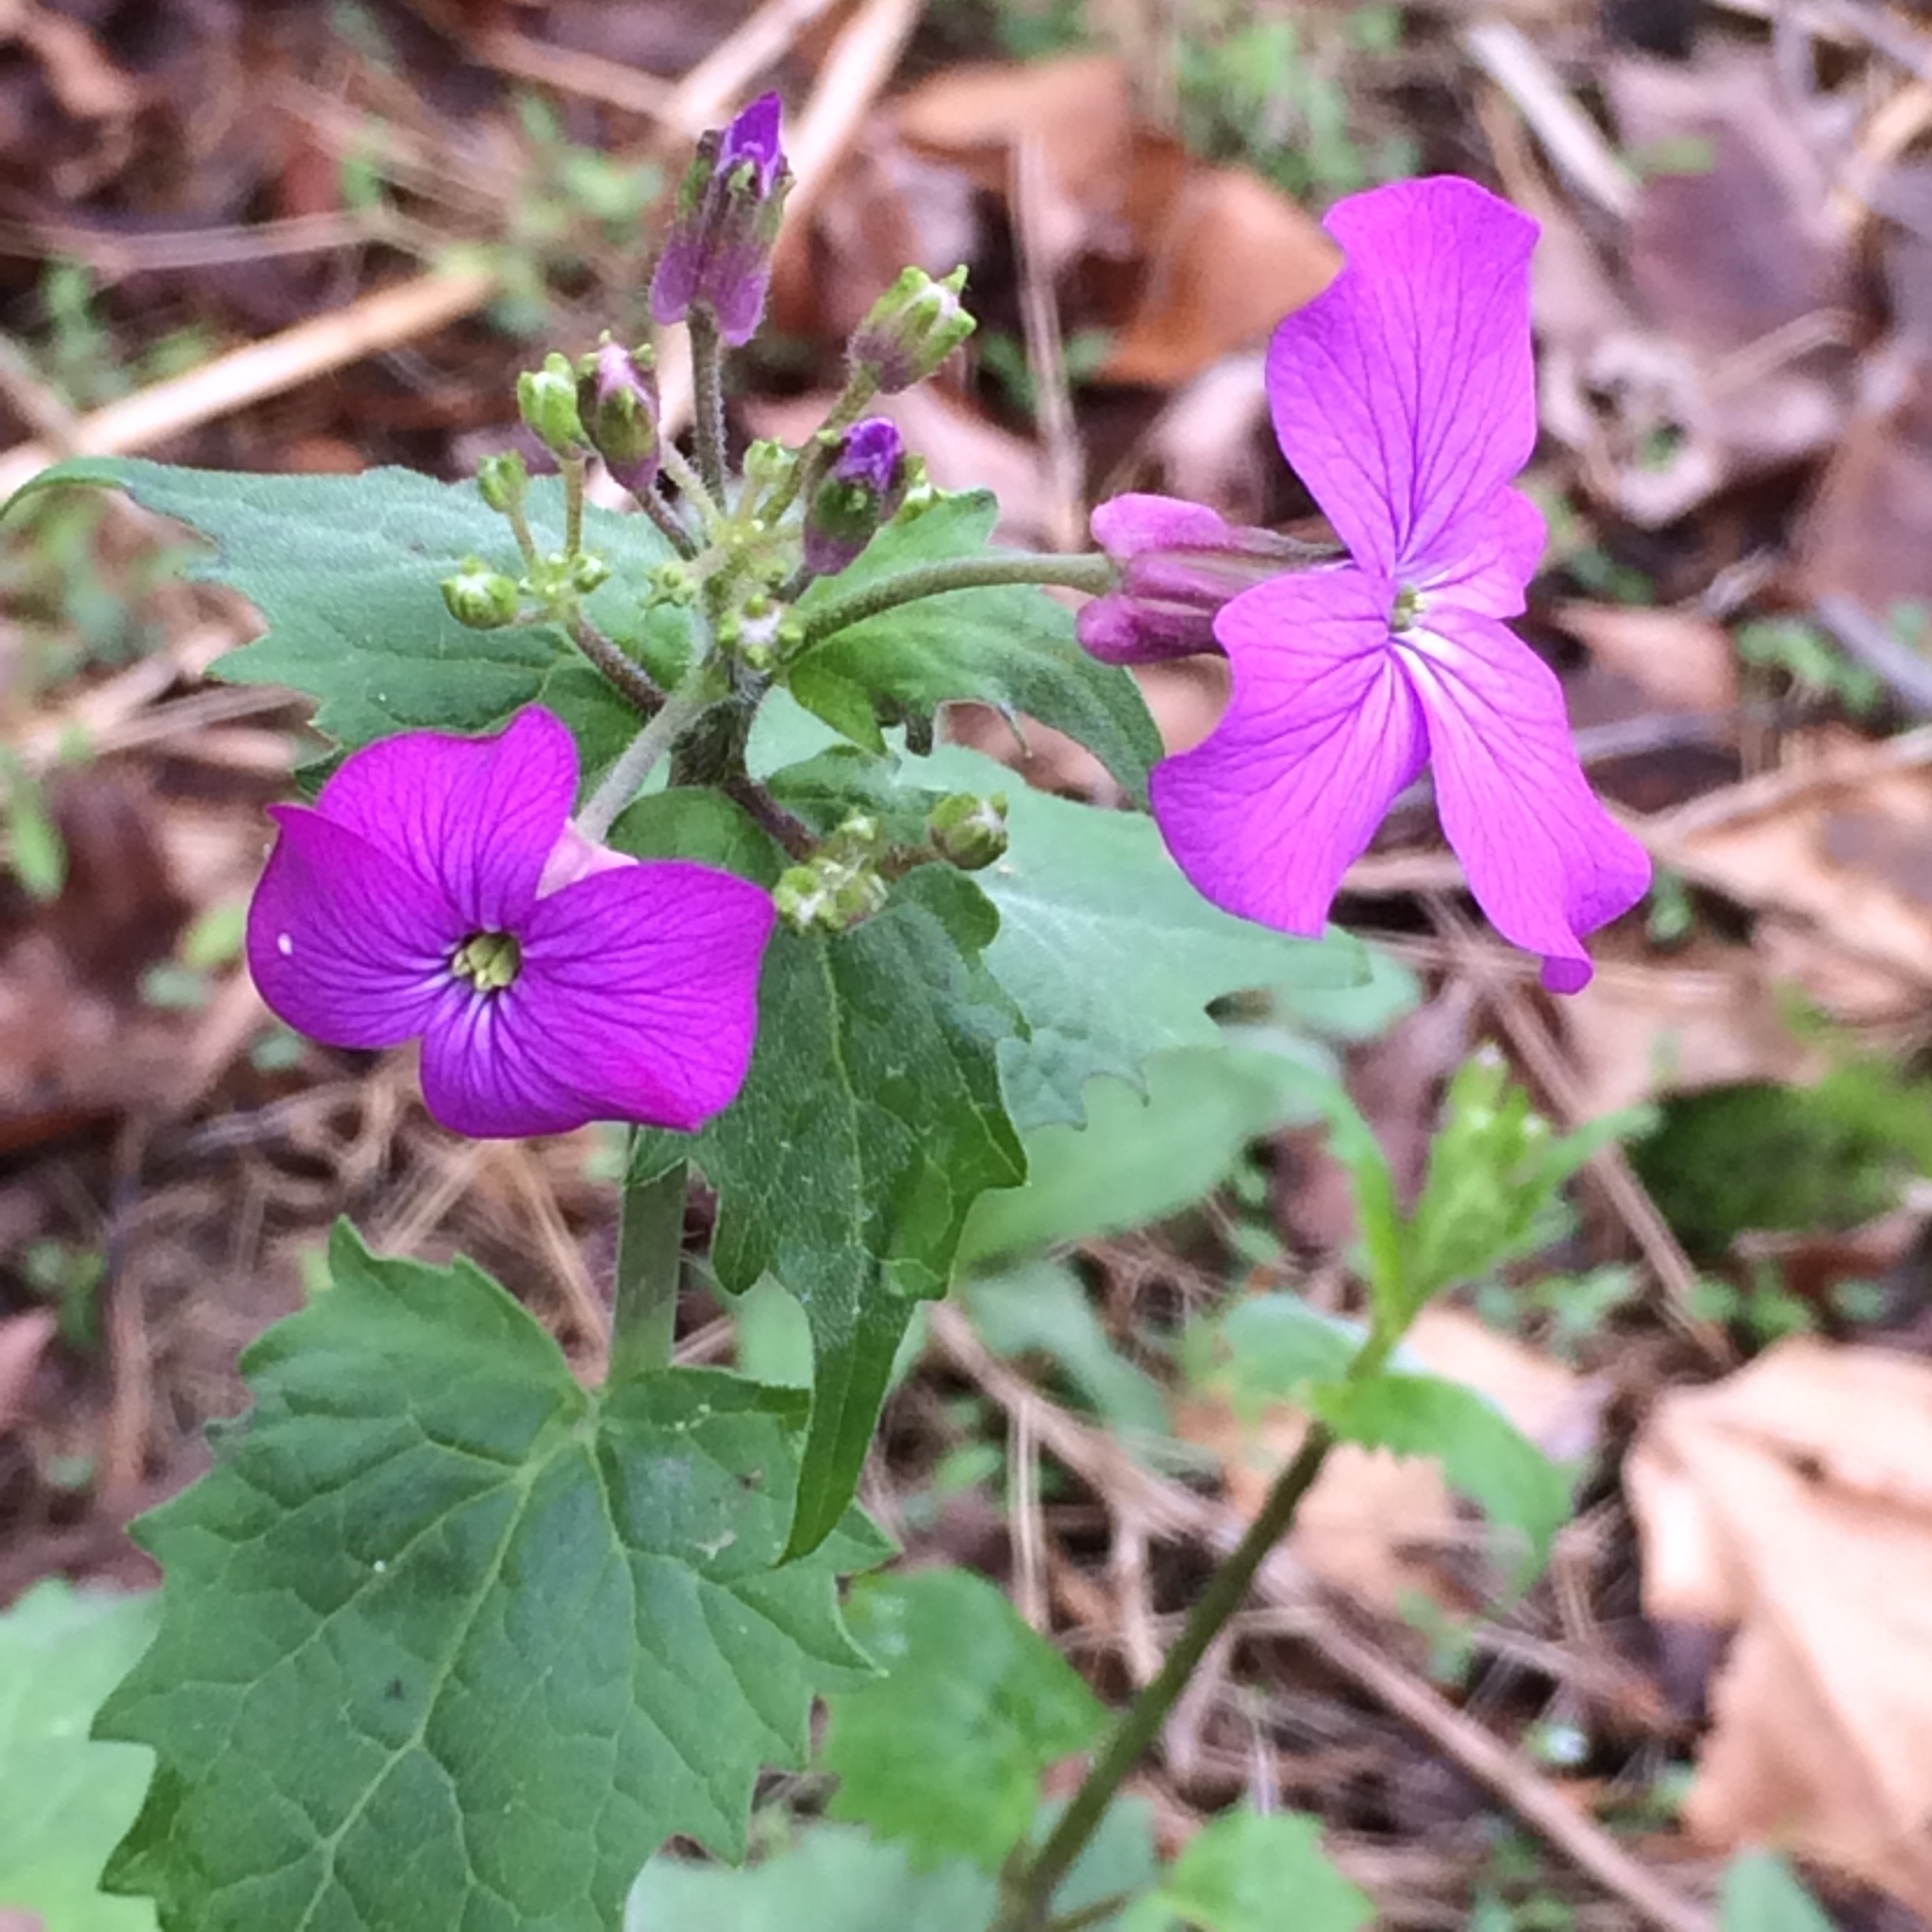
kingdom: Plantae
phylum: Tracheophyta
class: Magnoliopsida
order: Brassicales
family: Brassicaceae
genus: Lunaria
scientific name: Lunaria annua
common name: Honesty
